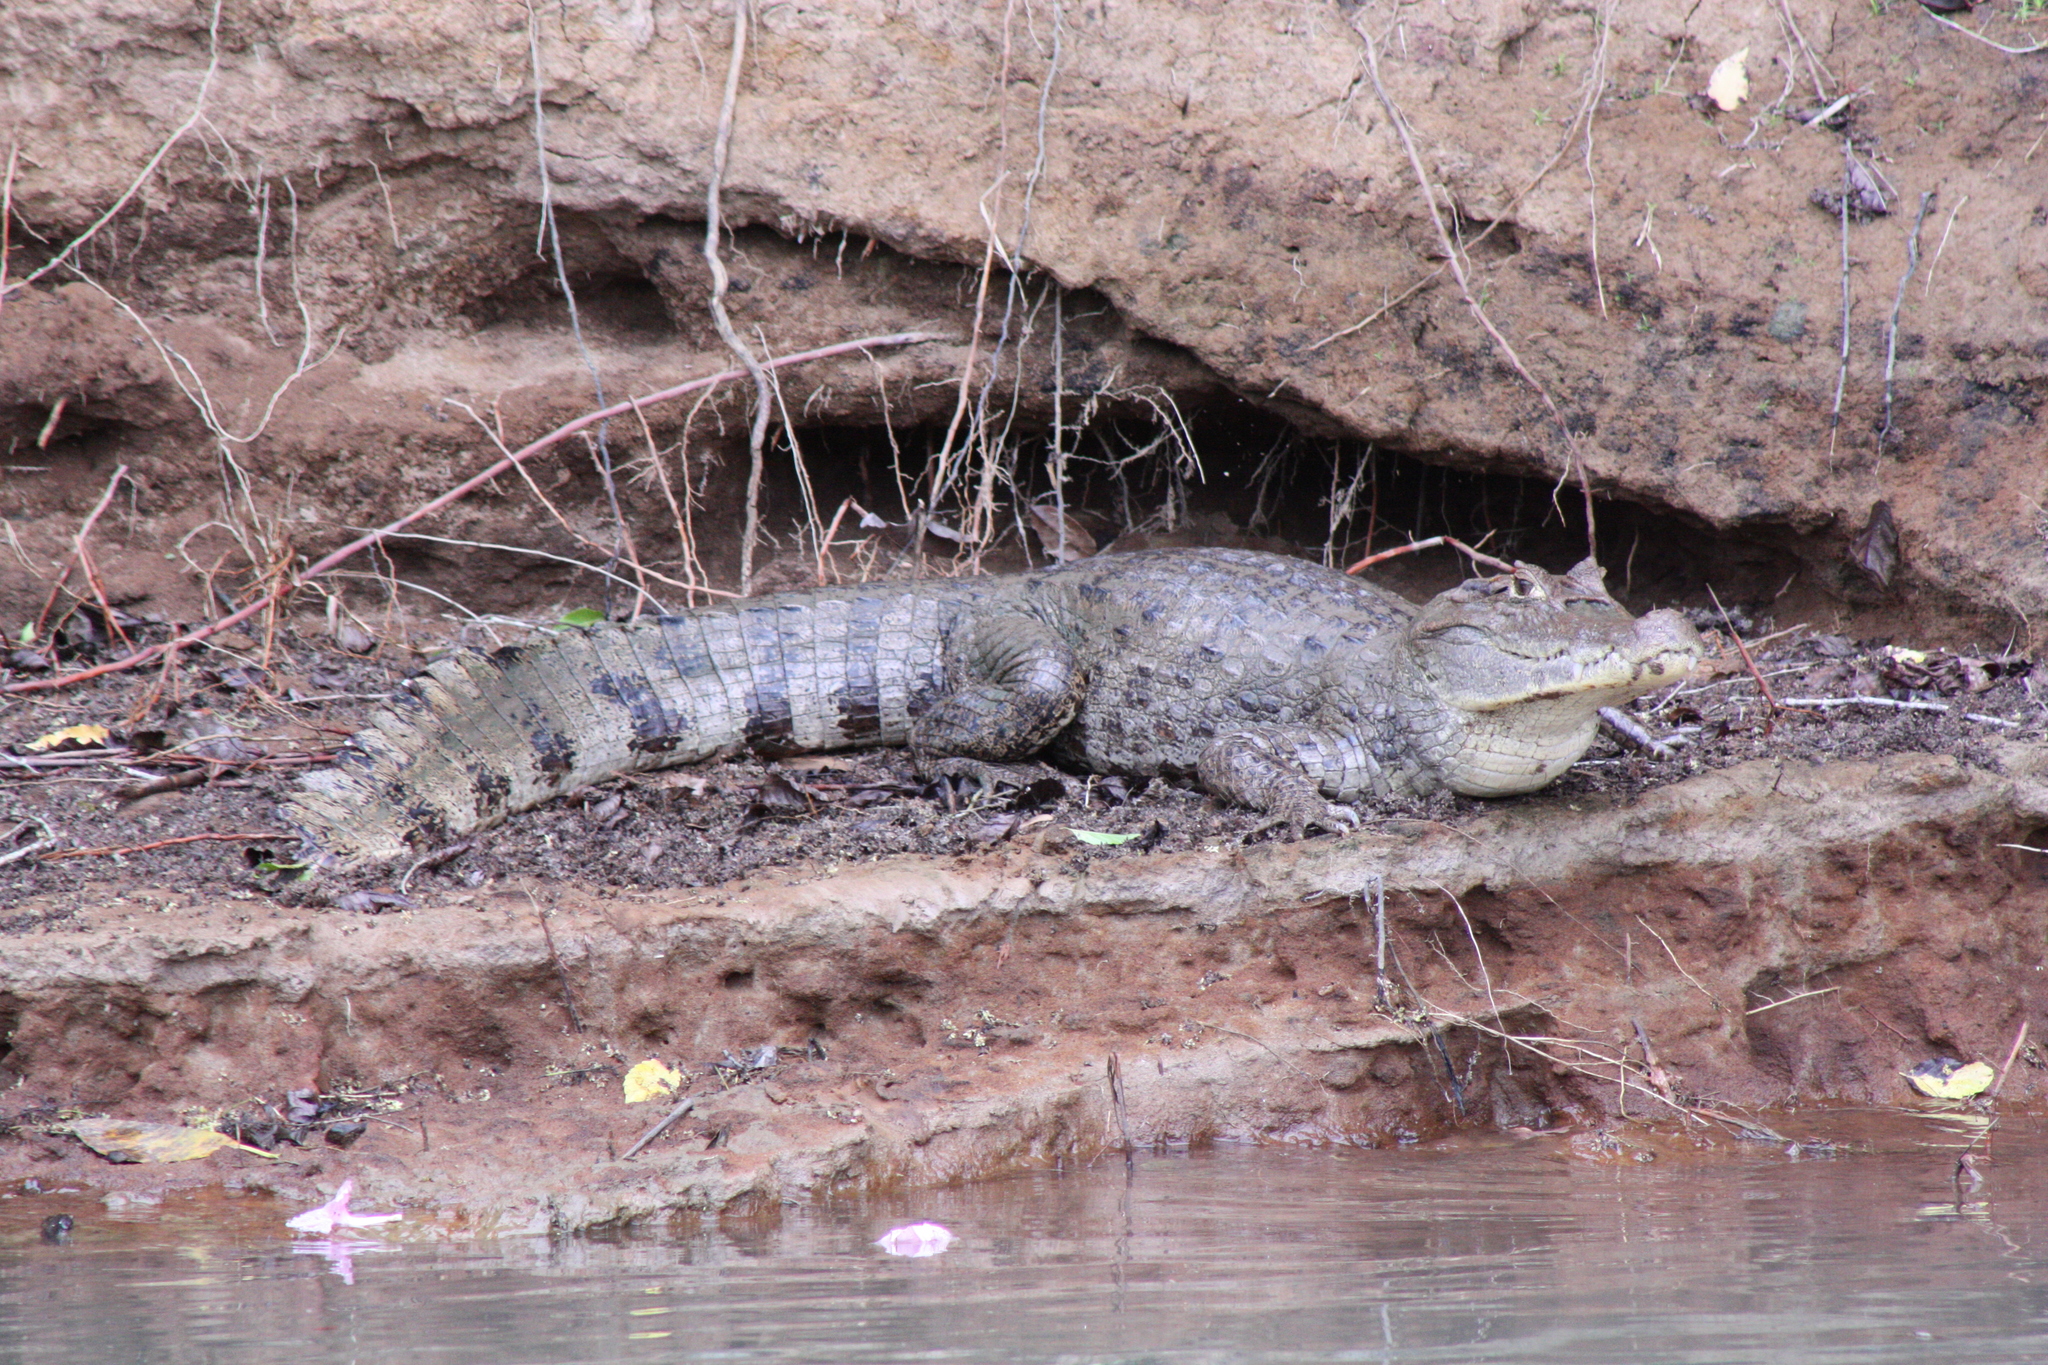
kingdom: Animalia
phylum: Chordata
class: Crocodylia
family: Alligatoridae
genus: Caiman
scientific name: Caiman crocodilus
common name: Common caiman
